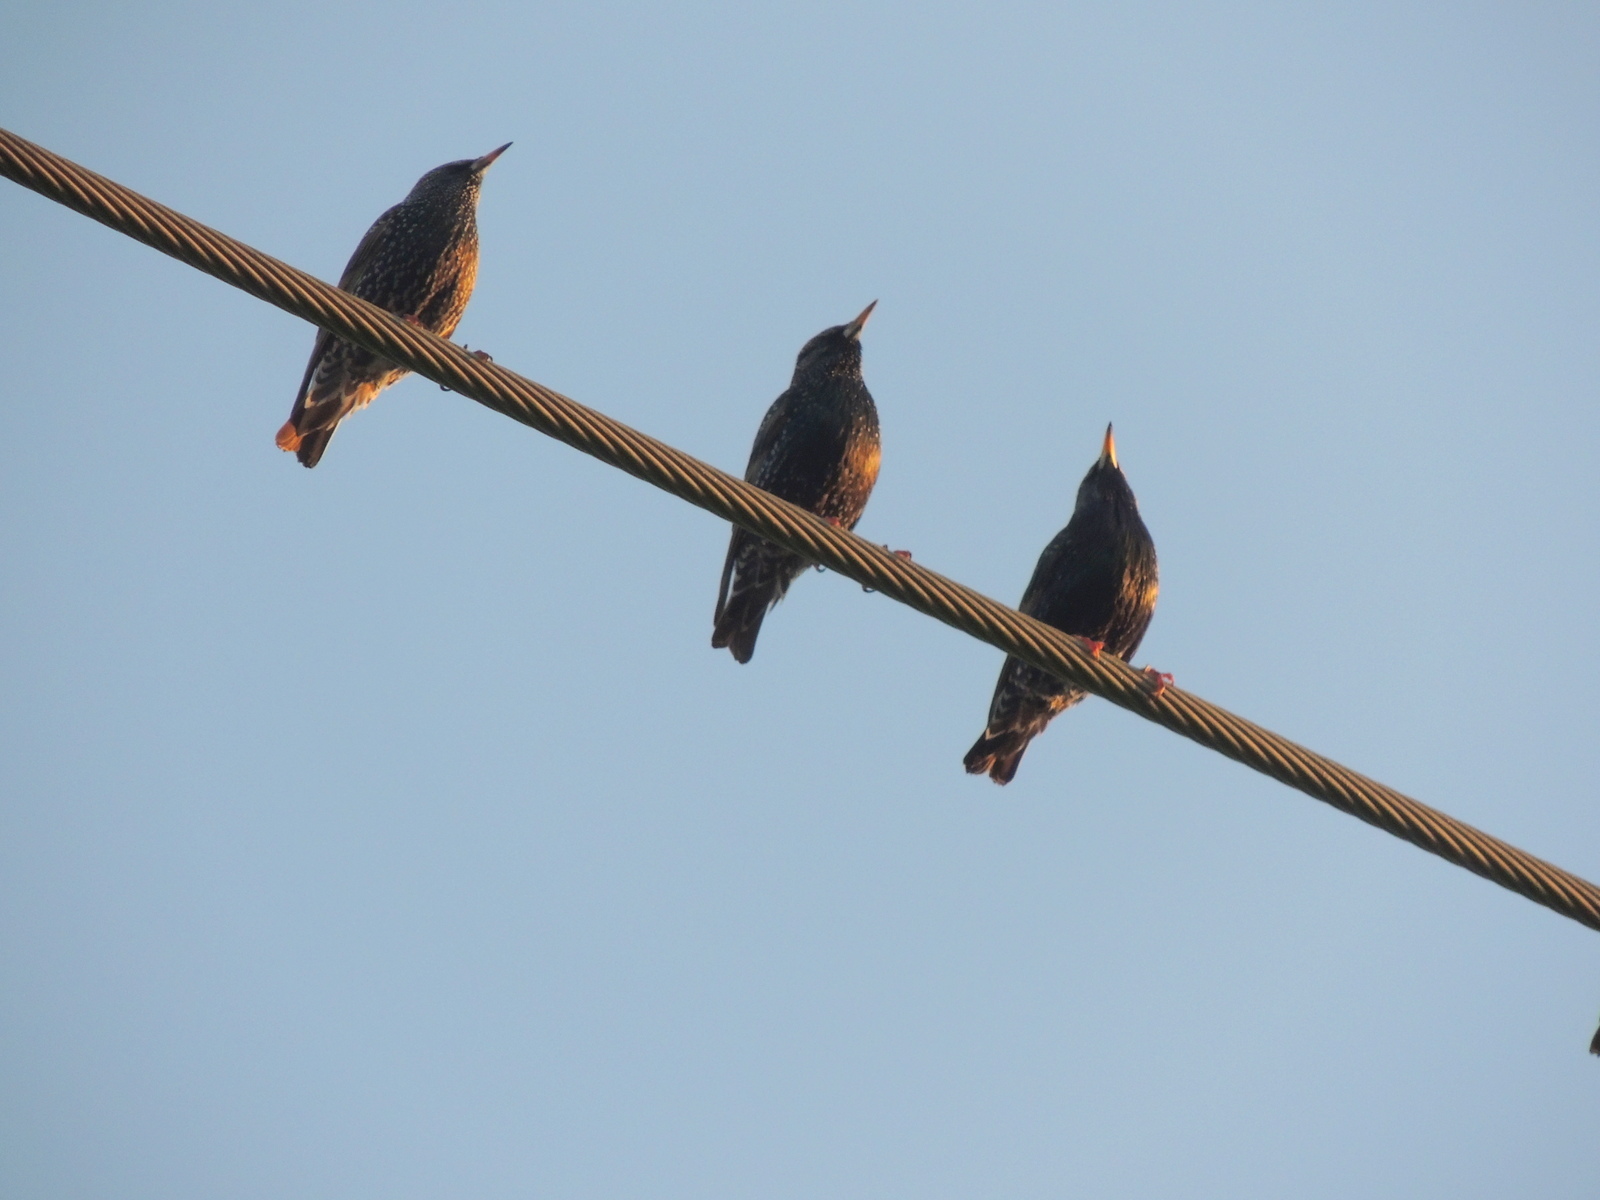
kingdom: Animalia
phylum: Chordata
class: Aves
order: Passeriformes
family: Sturnidae
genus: Sturnus
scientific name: Sturnus vulgaris
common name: Common starling
